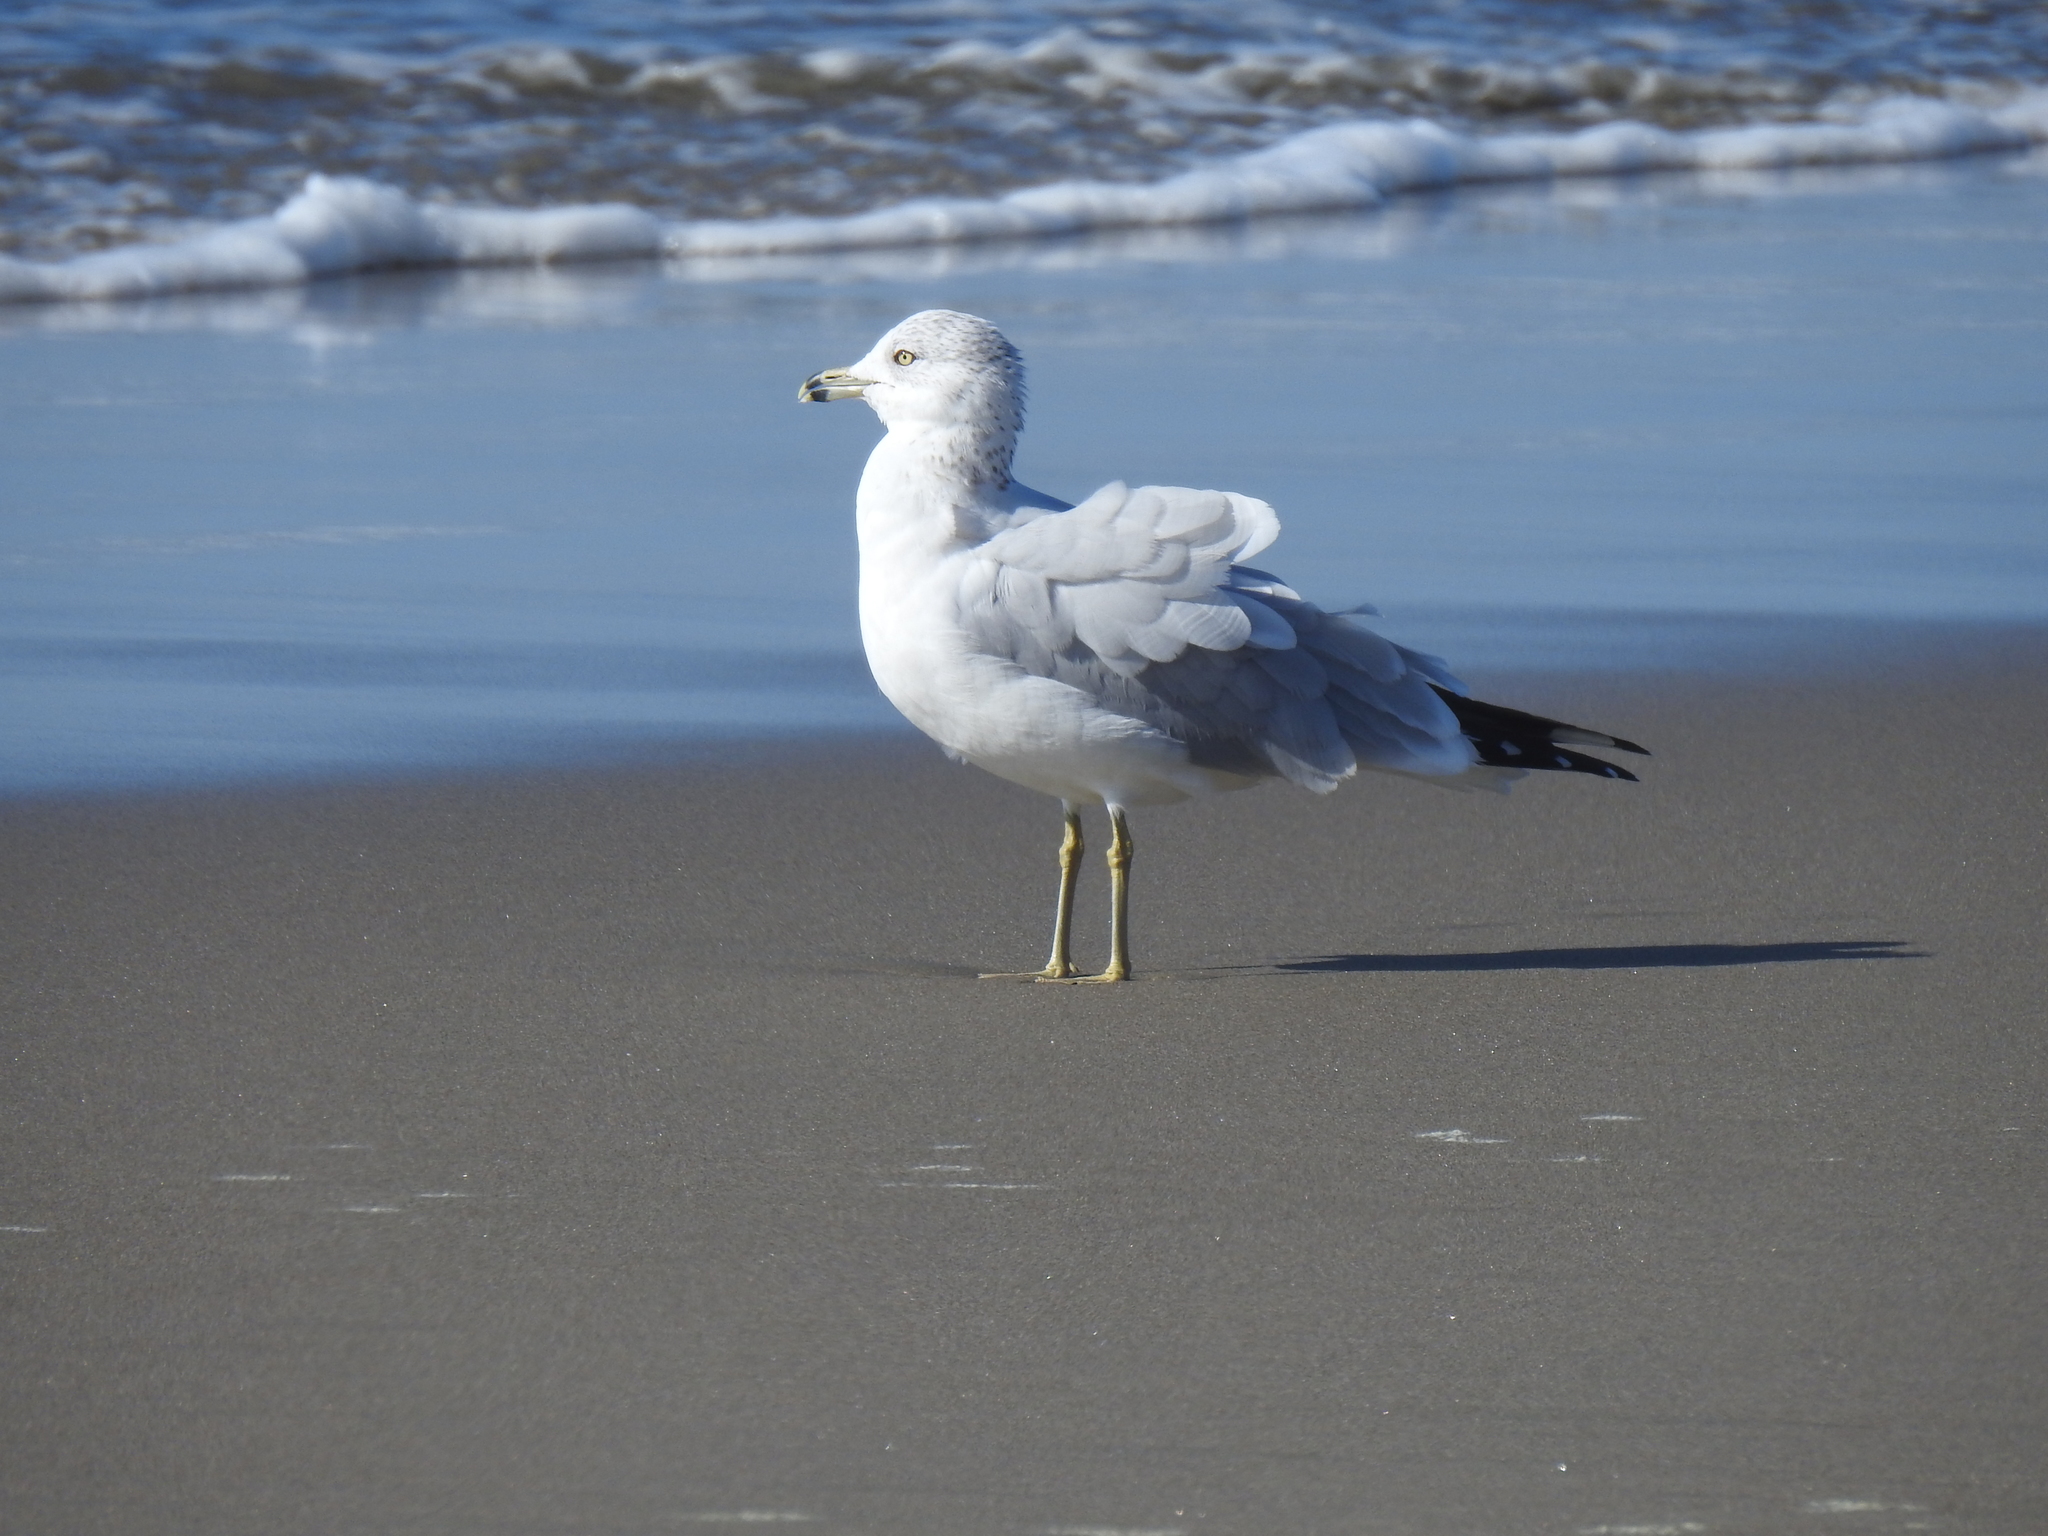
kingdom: Animalia
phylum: Chordata
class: Aves
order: Charadriiformes
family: Laridae
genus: Larus
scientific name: Larus delawarensis
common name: Ring-billed gull
